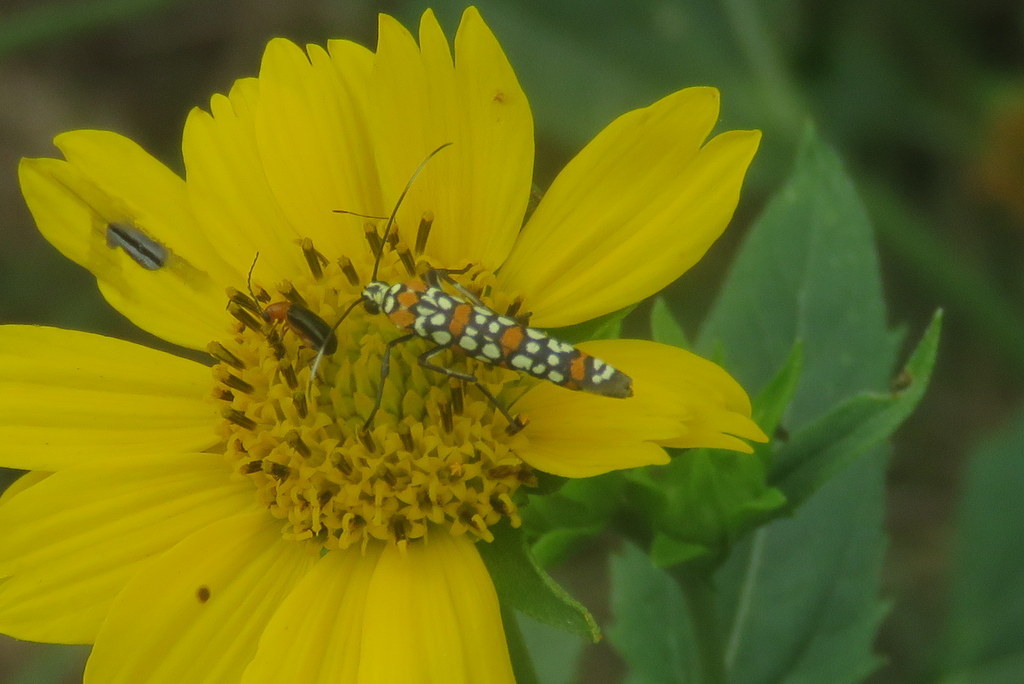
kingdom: Animalia
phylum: Arthropoda
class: Insecta
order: Lepidoptera
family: Attevidae
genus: Atteva
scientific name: Atteva punctella
